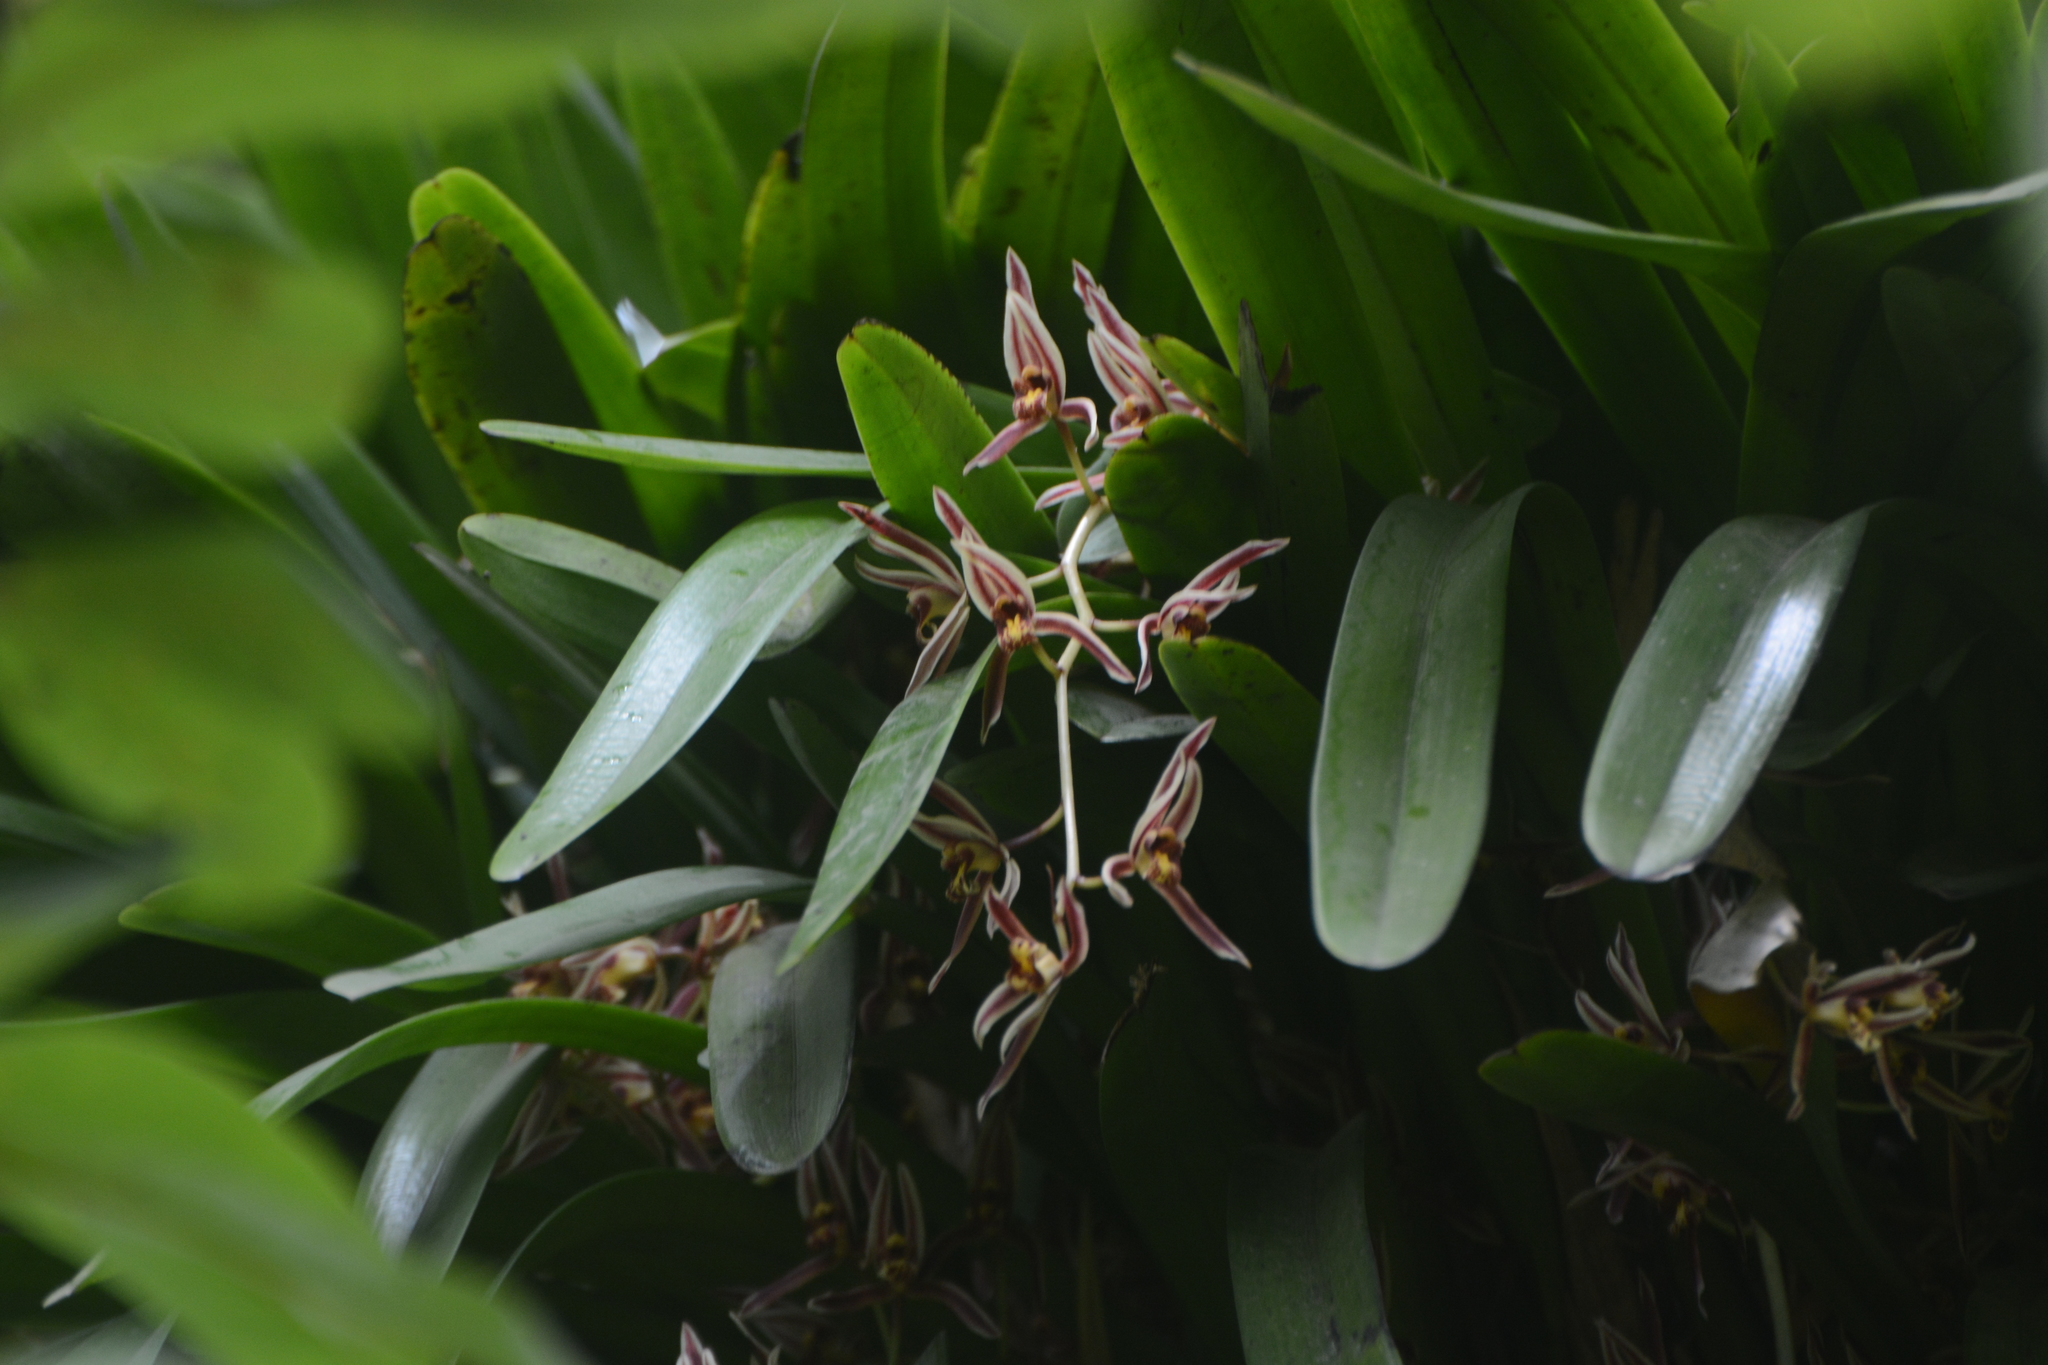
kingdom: Plantae
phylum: Tracheophyta
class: Liliopsida
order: Asparagales
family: Orchidaceae
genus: Cymbidium
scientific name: Cymbidium bicolor
